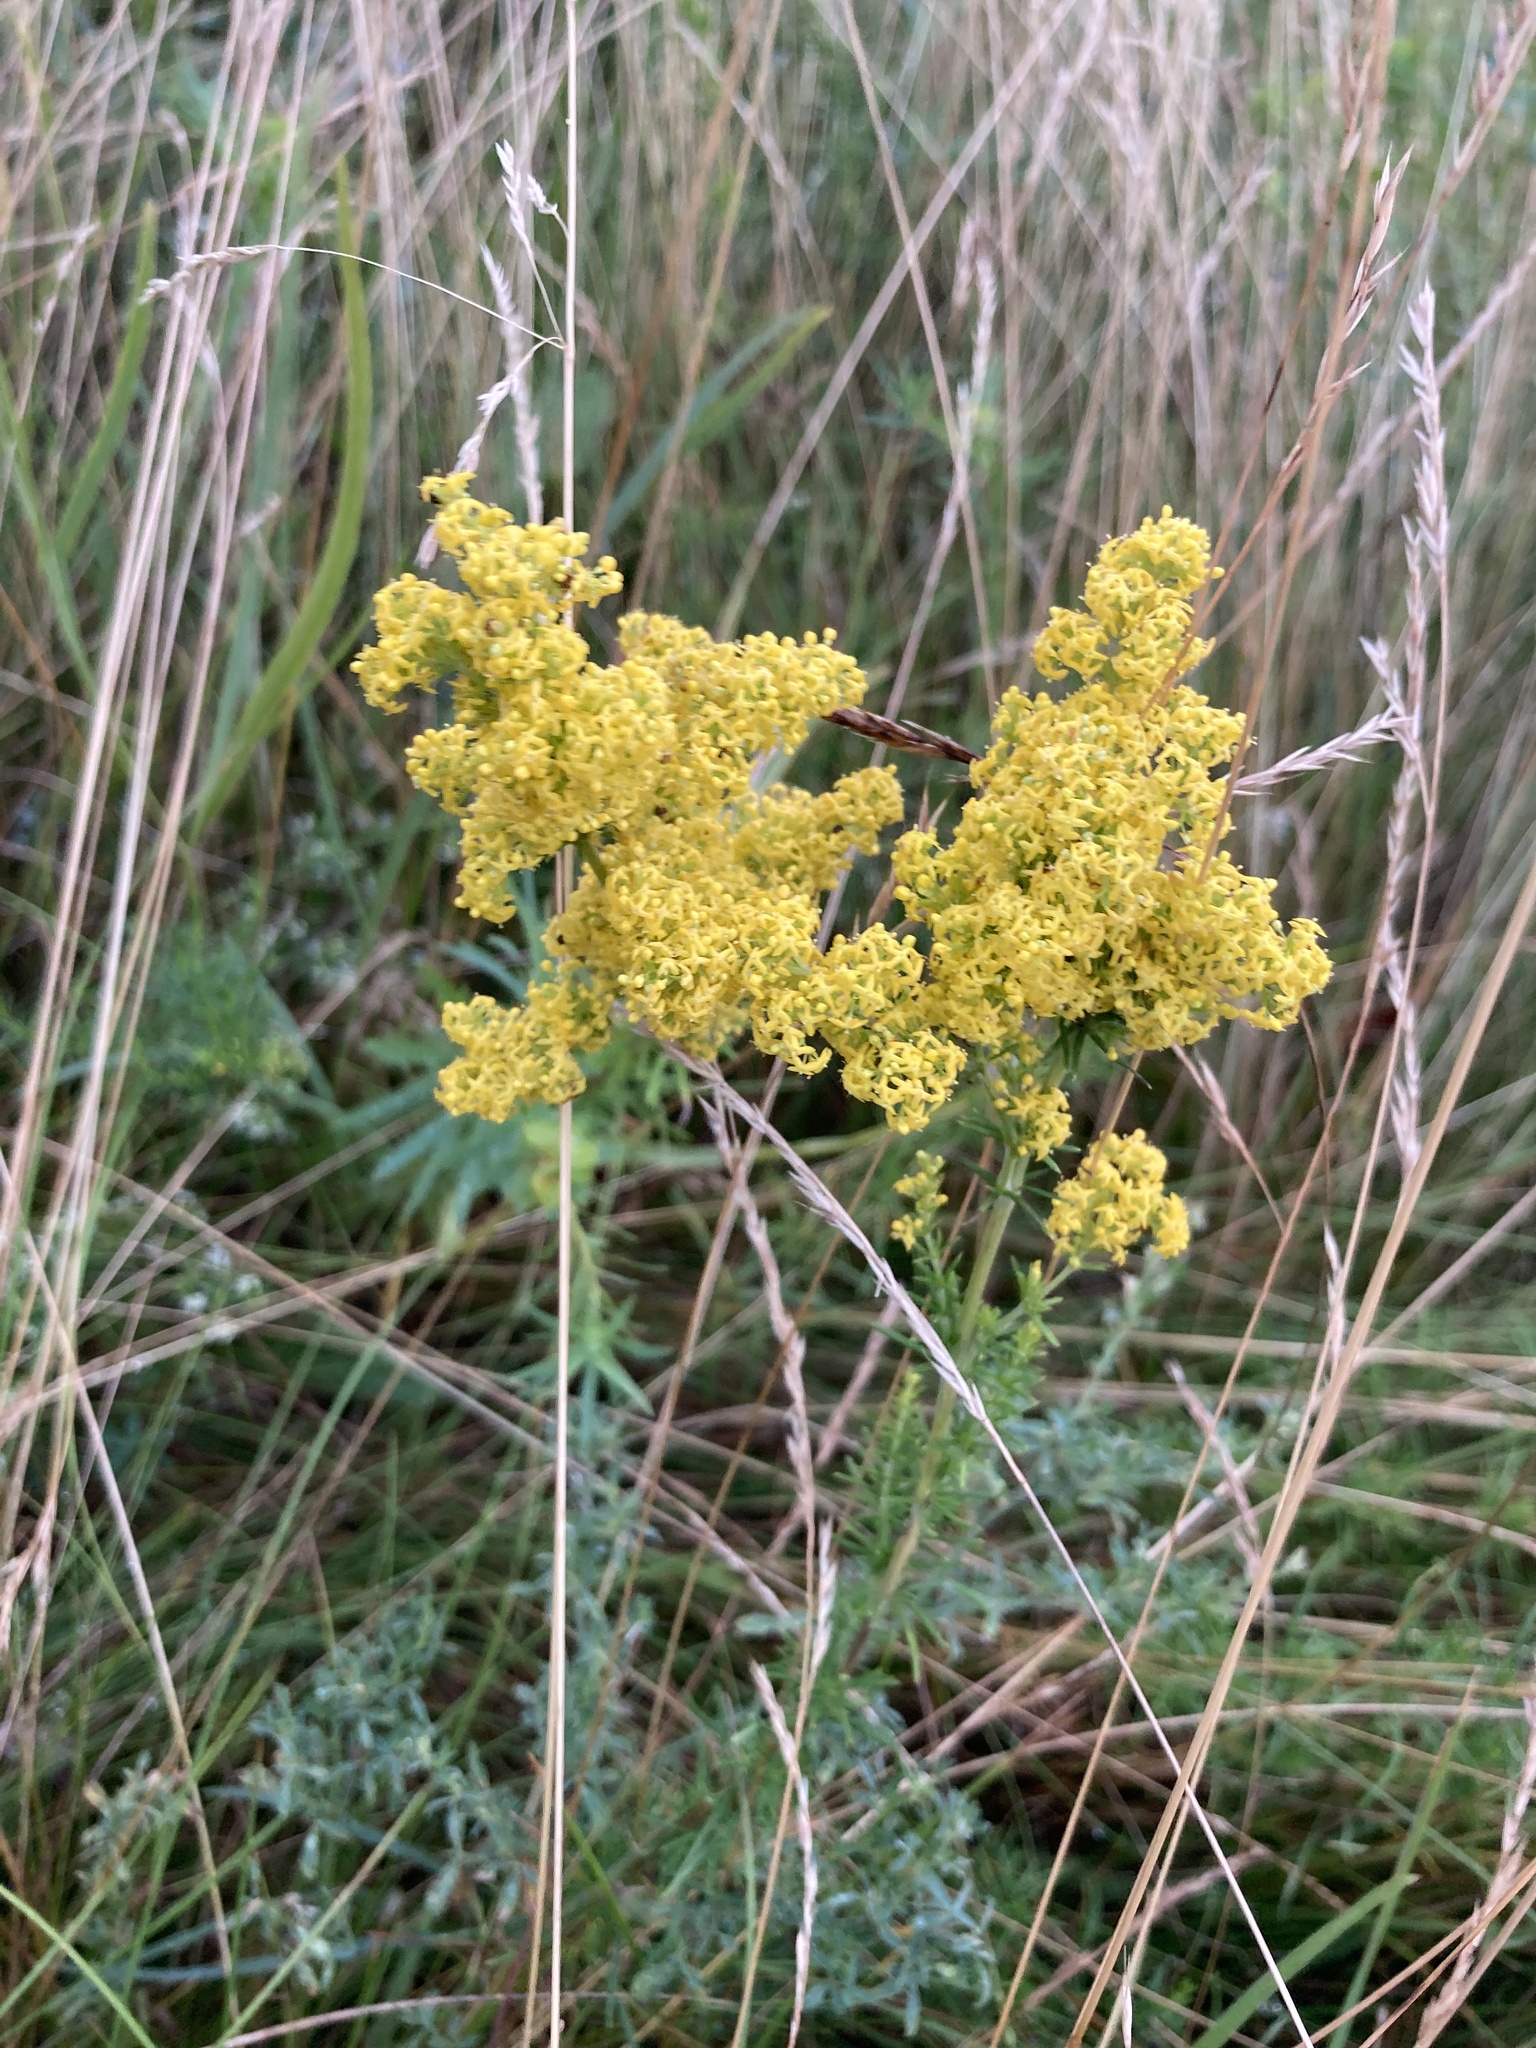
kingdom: Plantae
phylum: Tracheophyta
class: Magnoliopsida
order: Gentianales
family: Rubiaceae
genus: Galium
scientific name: Galium verum
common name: Lady's bedstraw
